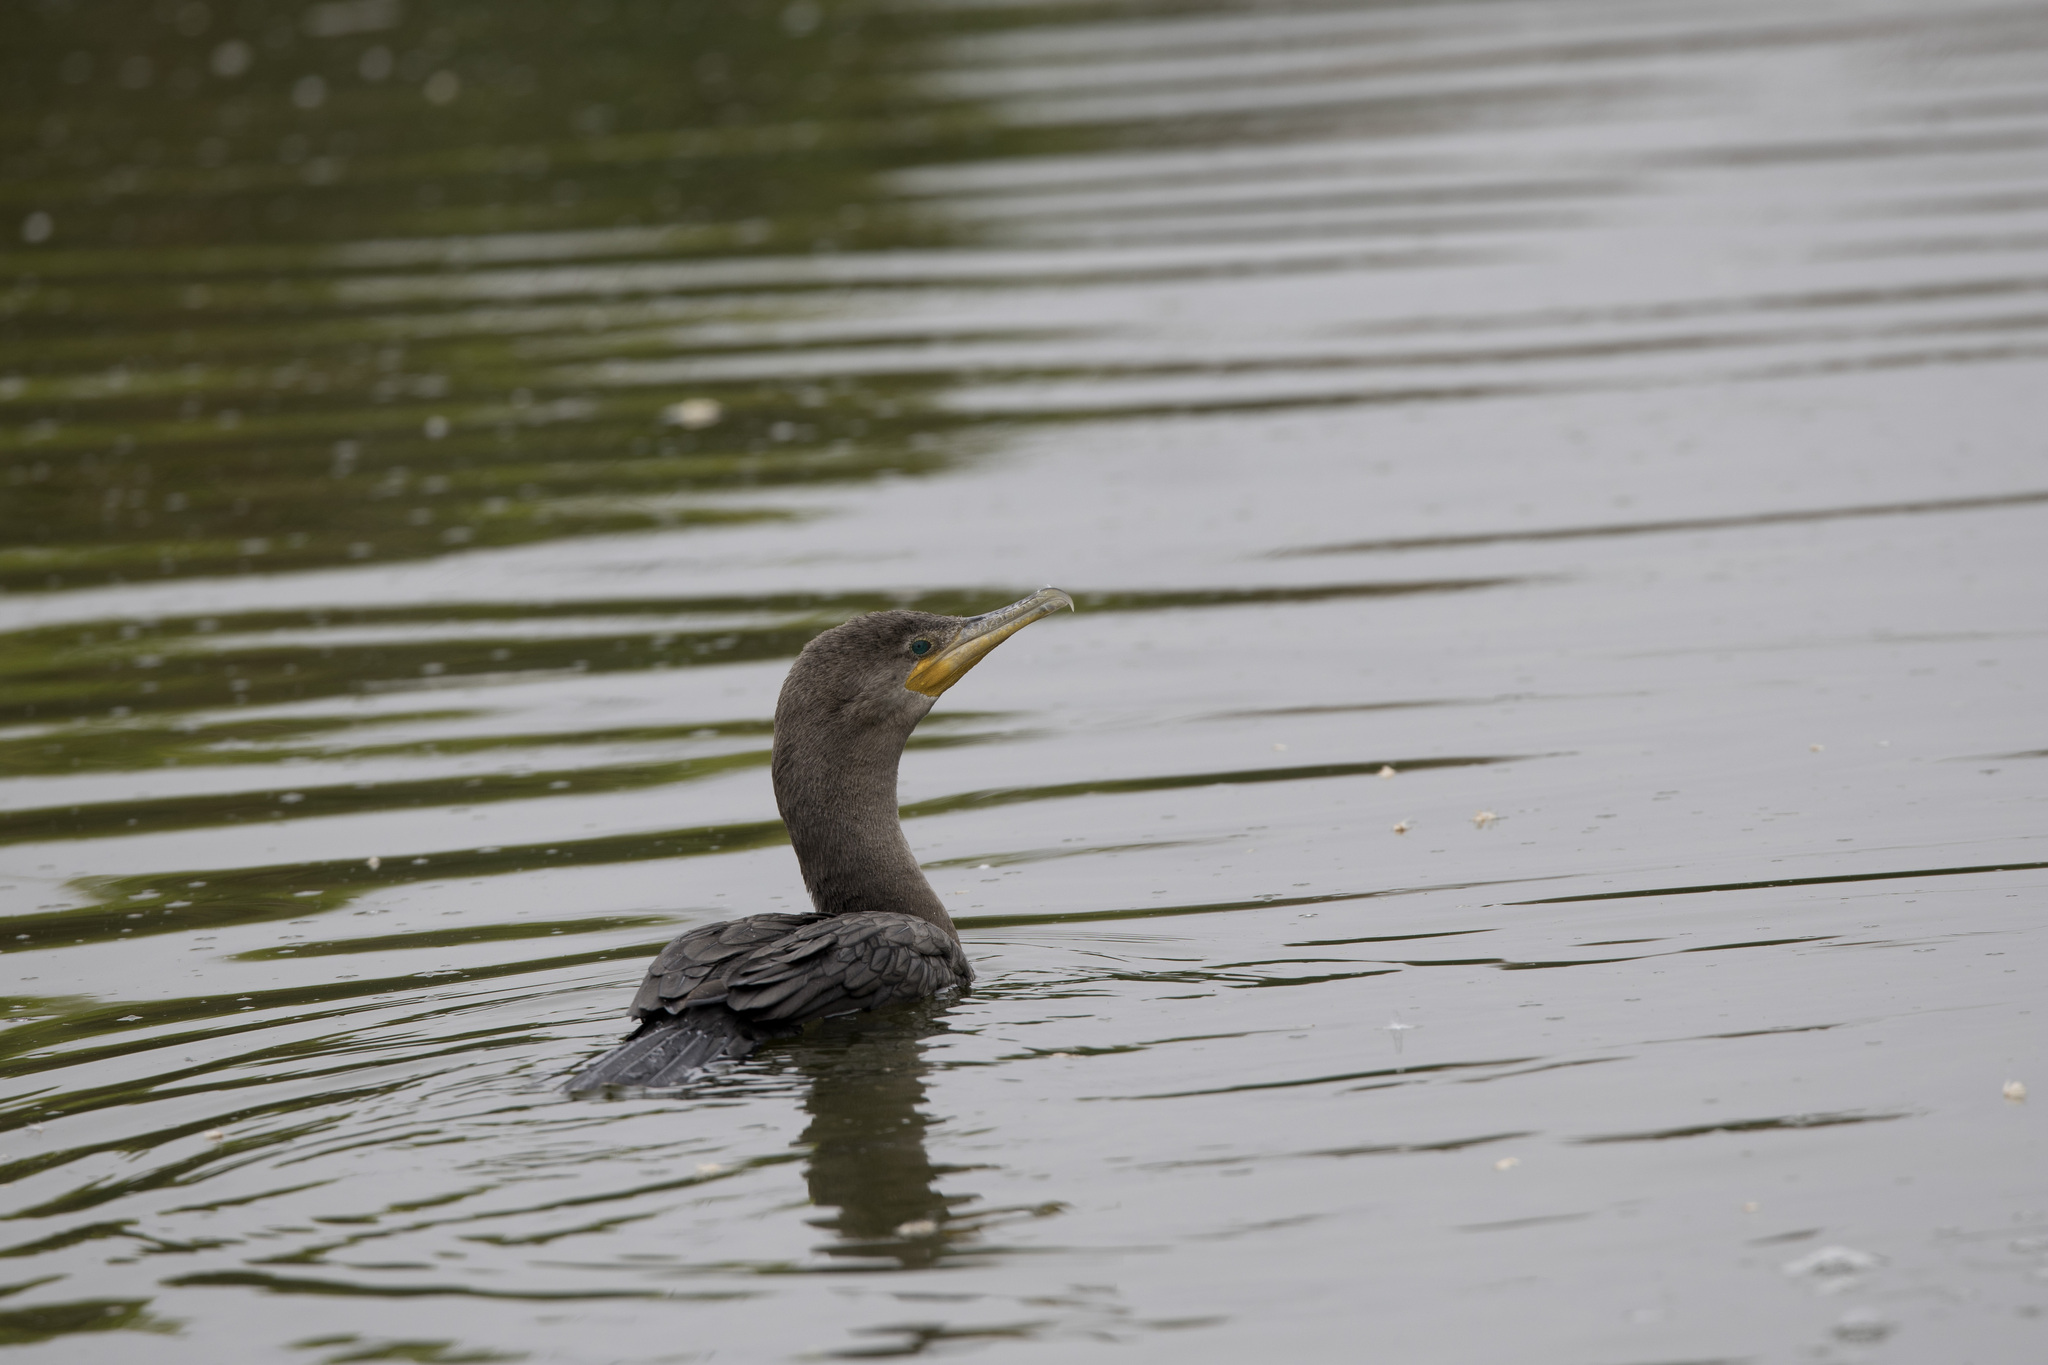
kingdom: Animalia
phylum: Chordata
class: Aves
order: Suliformes
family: Phalacrocoracidae
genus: Phalacrocorax
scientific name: Phalacrocorax brasilianus
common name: Neotropic cormorant
